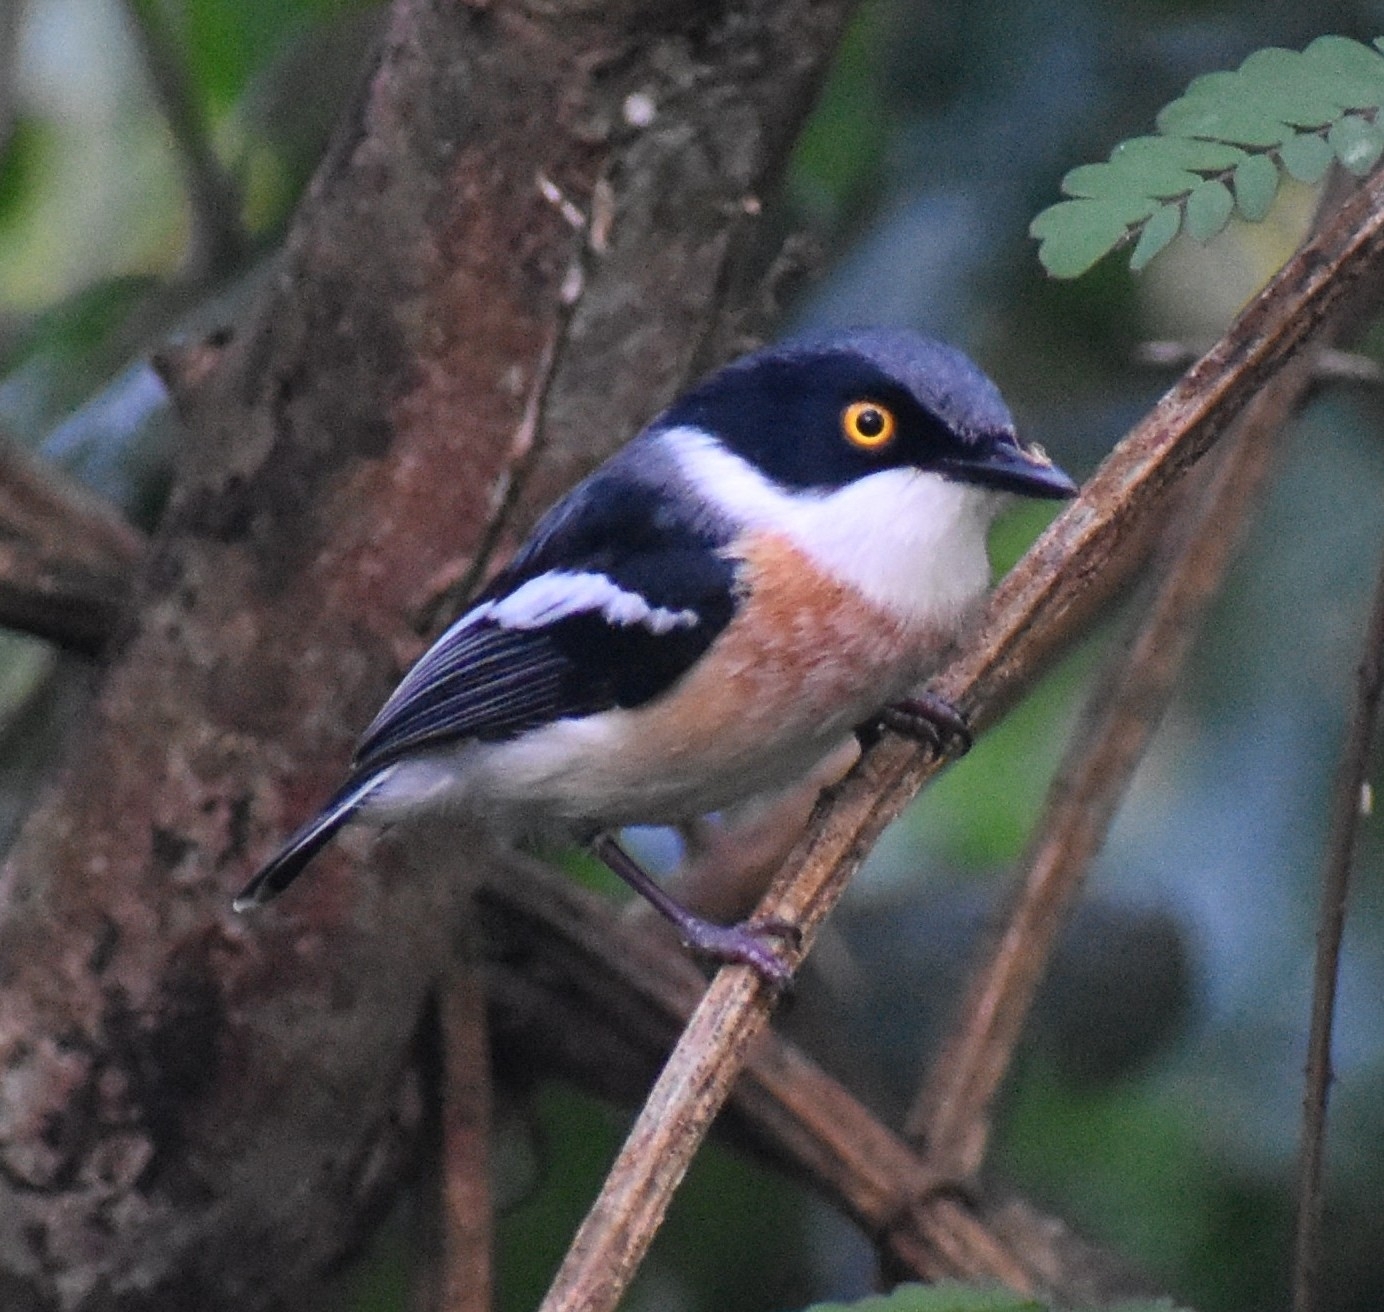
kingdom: Animalia
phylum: Chordata
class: Aves
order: Passeriformes
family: Platysteiridae
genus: Batis
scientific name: Batis fratrum
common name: Woodward's batis
